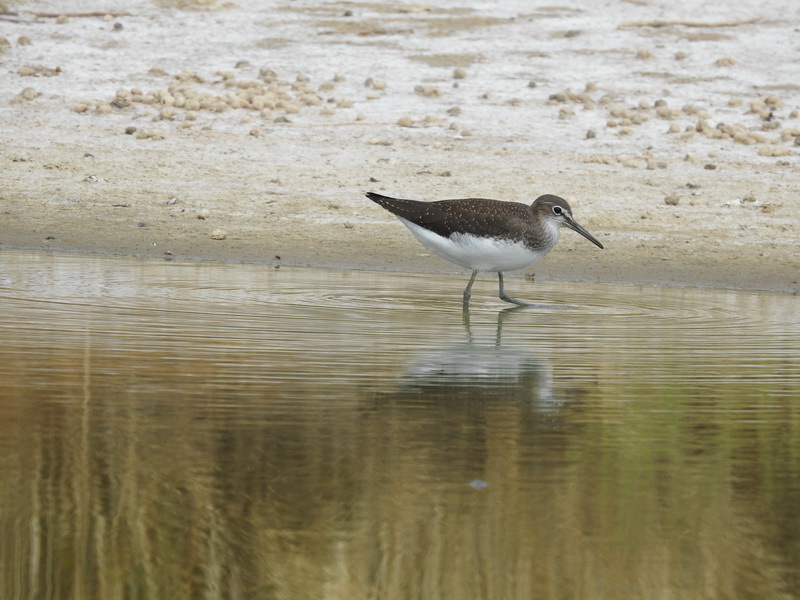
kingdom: Animalia
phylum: Chordata
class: Aves
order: Charadriiformes
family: Scolopacidae
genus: Tringa
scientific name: Tringa ochropus
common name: Green sandpiper
